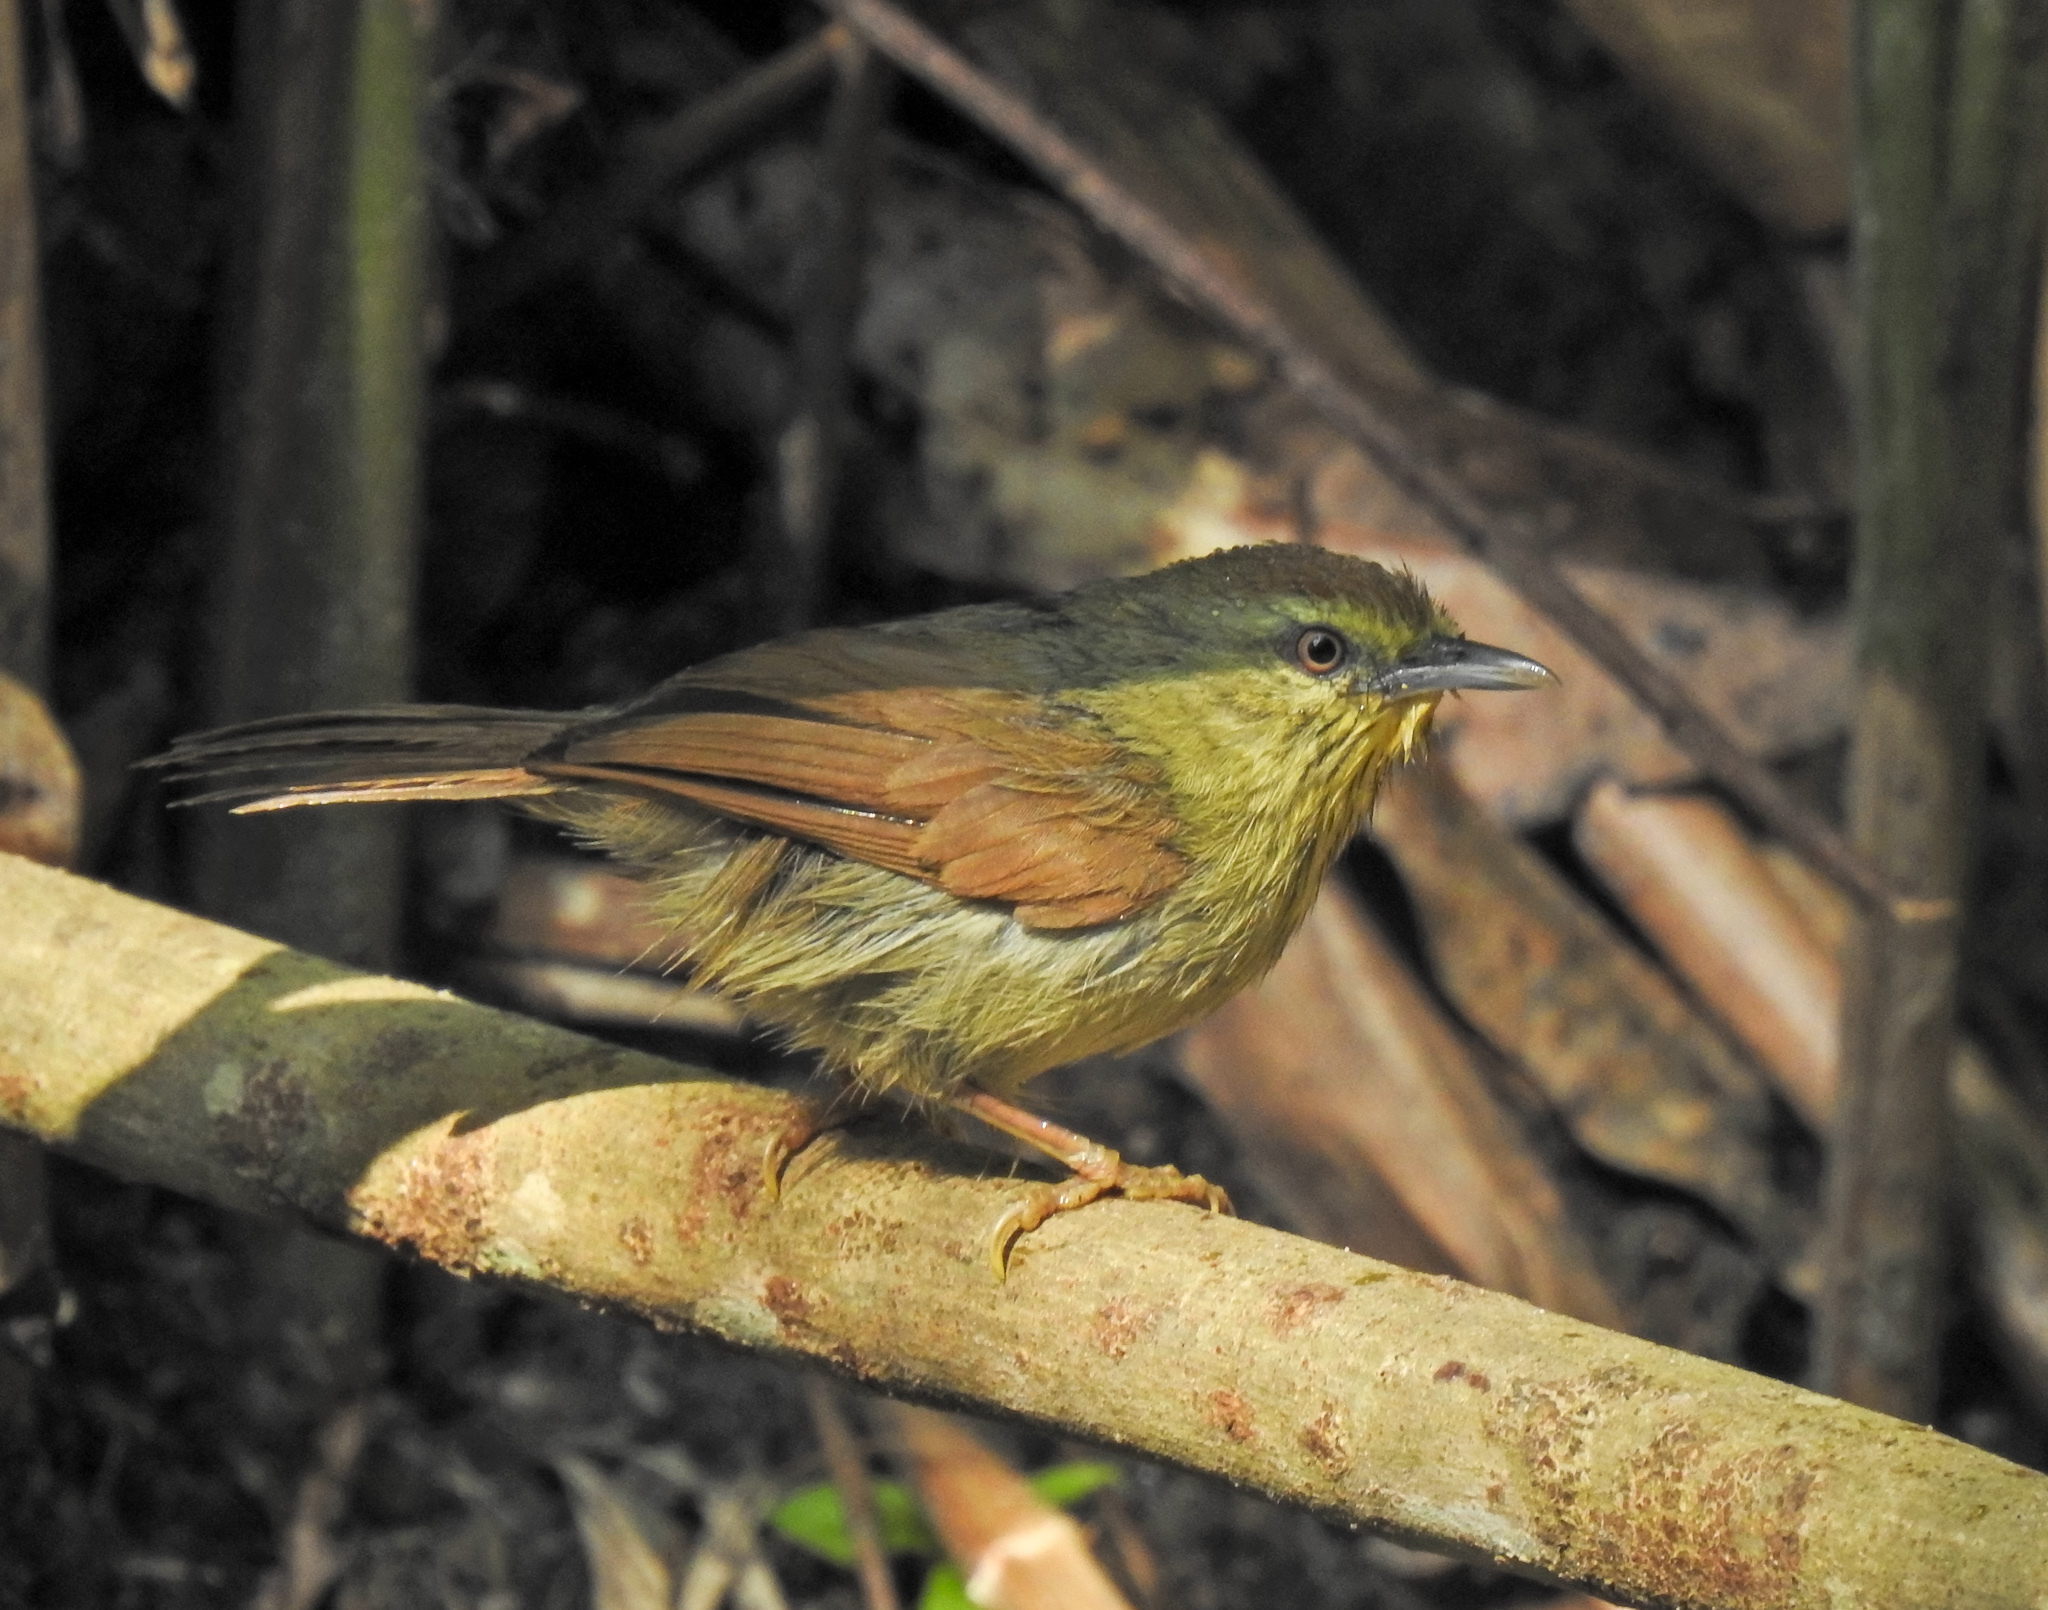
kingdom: Animalia
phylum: Chordata
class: Aves
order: Passeriformes
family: Timaliidae
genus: Macronus
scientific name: Macronus gularis
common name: Striped tit-babbler
